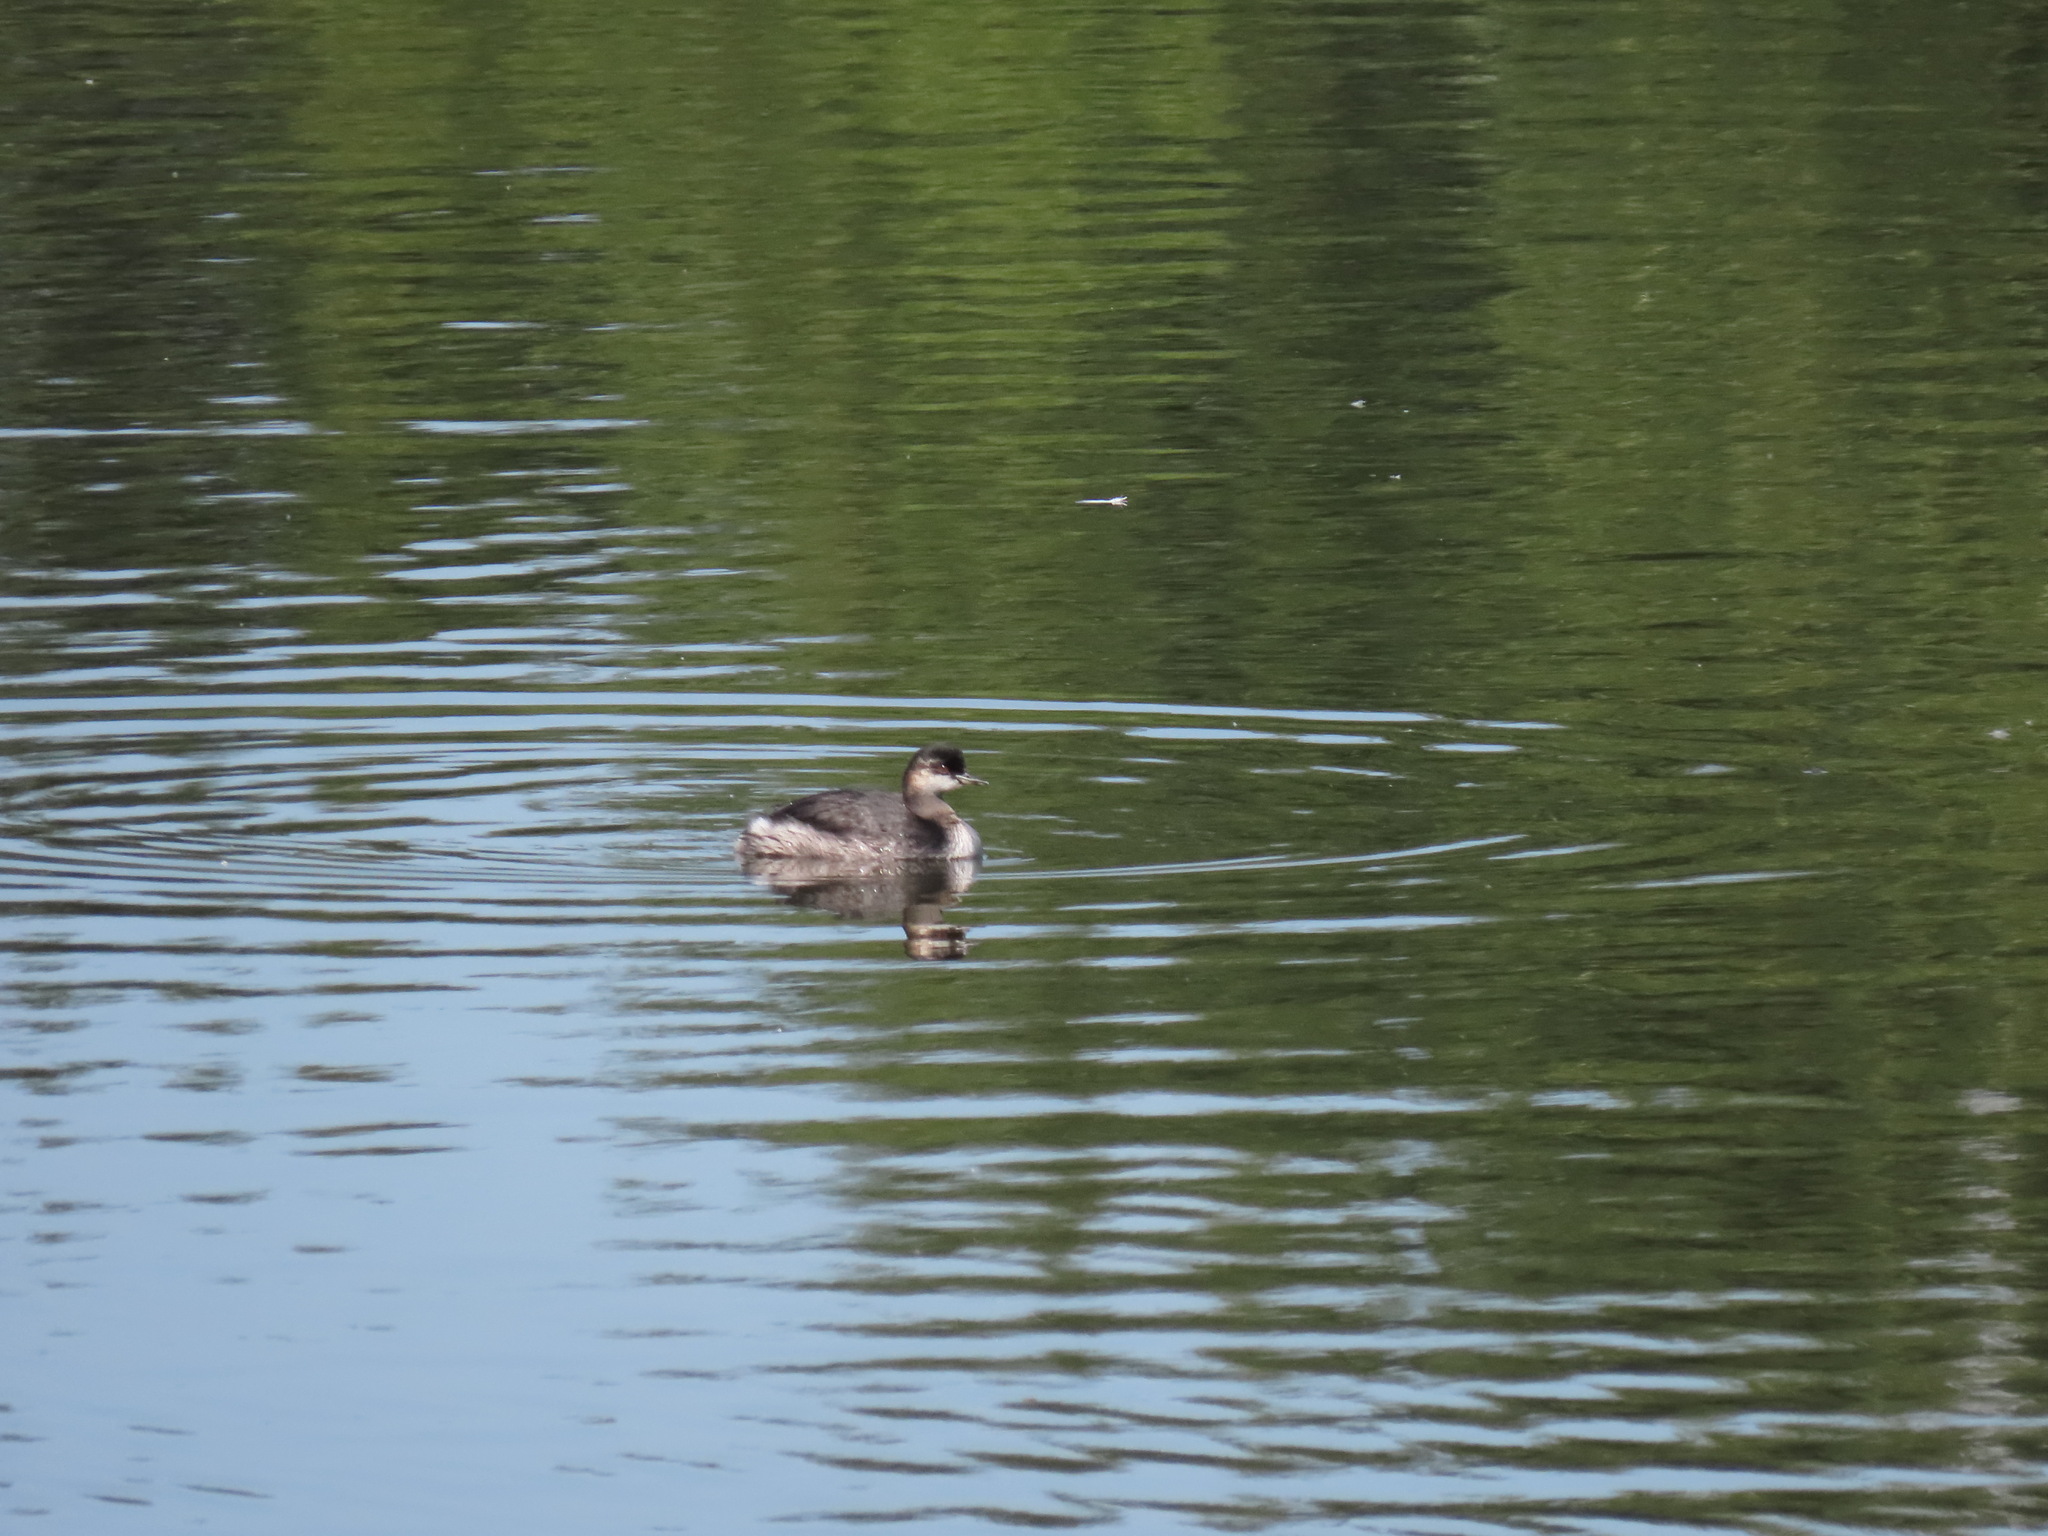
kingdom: Animalia
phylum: Chordata
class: Aves
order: Podicipediformes
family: Podicipedidae
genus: Podiceps
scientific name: Podiceps nigricollis
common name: Black-necked grebe
